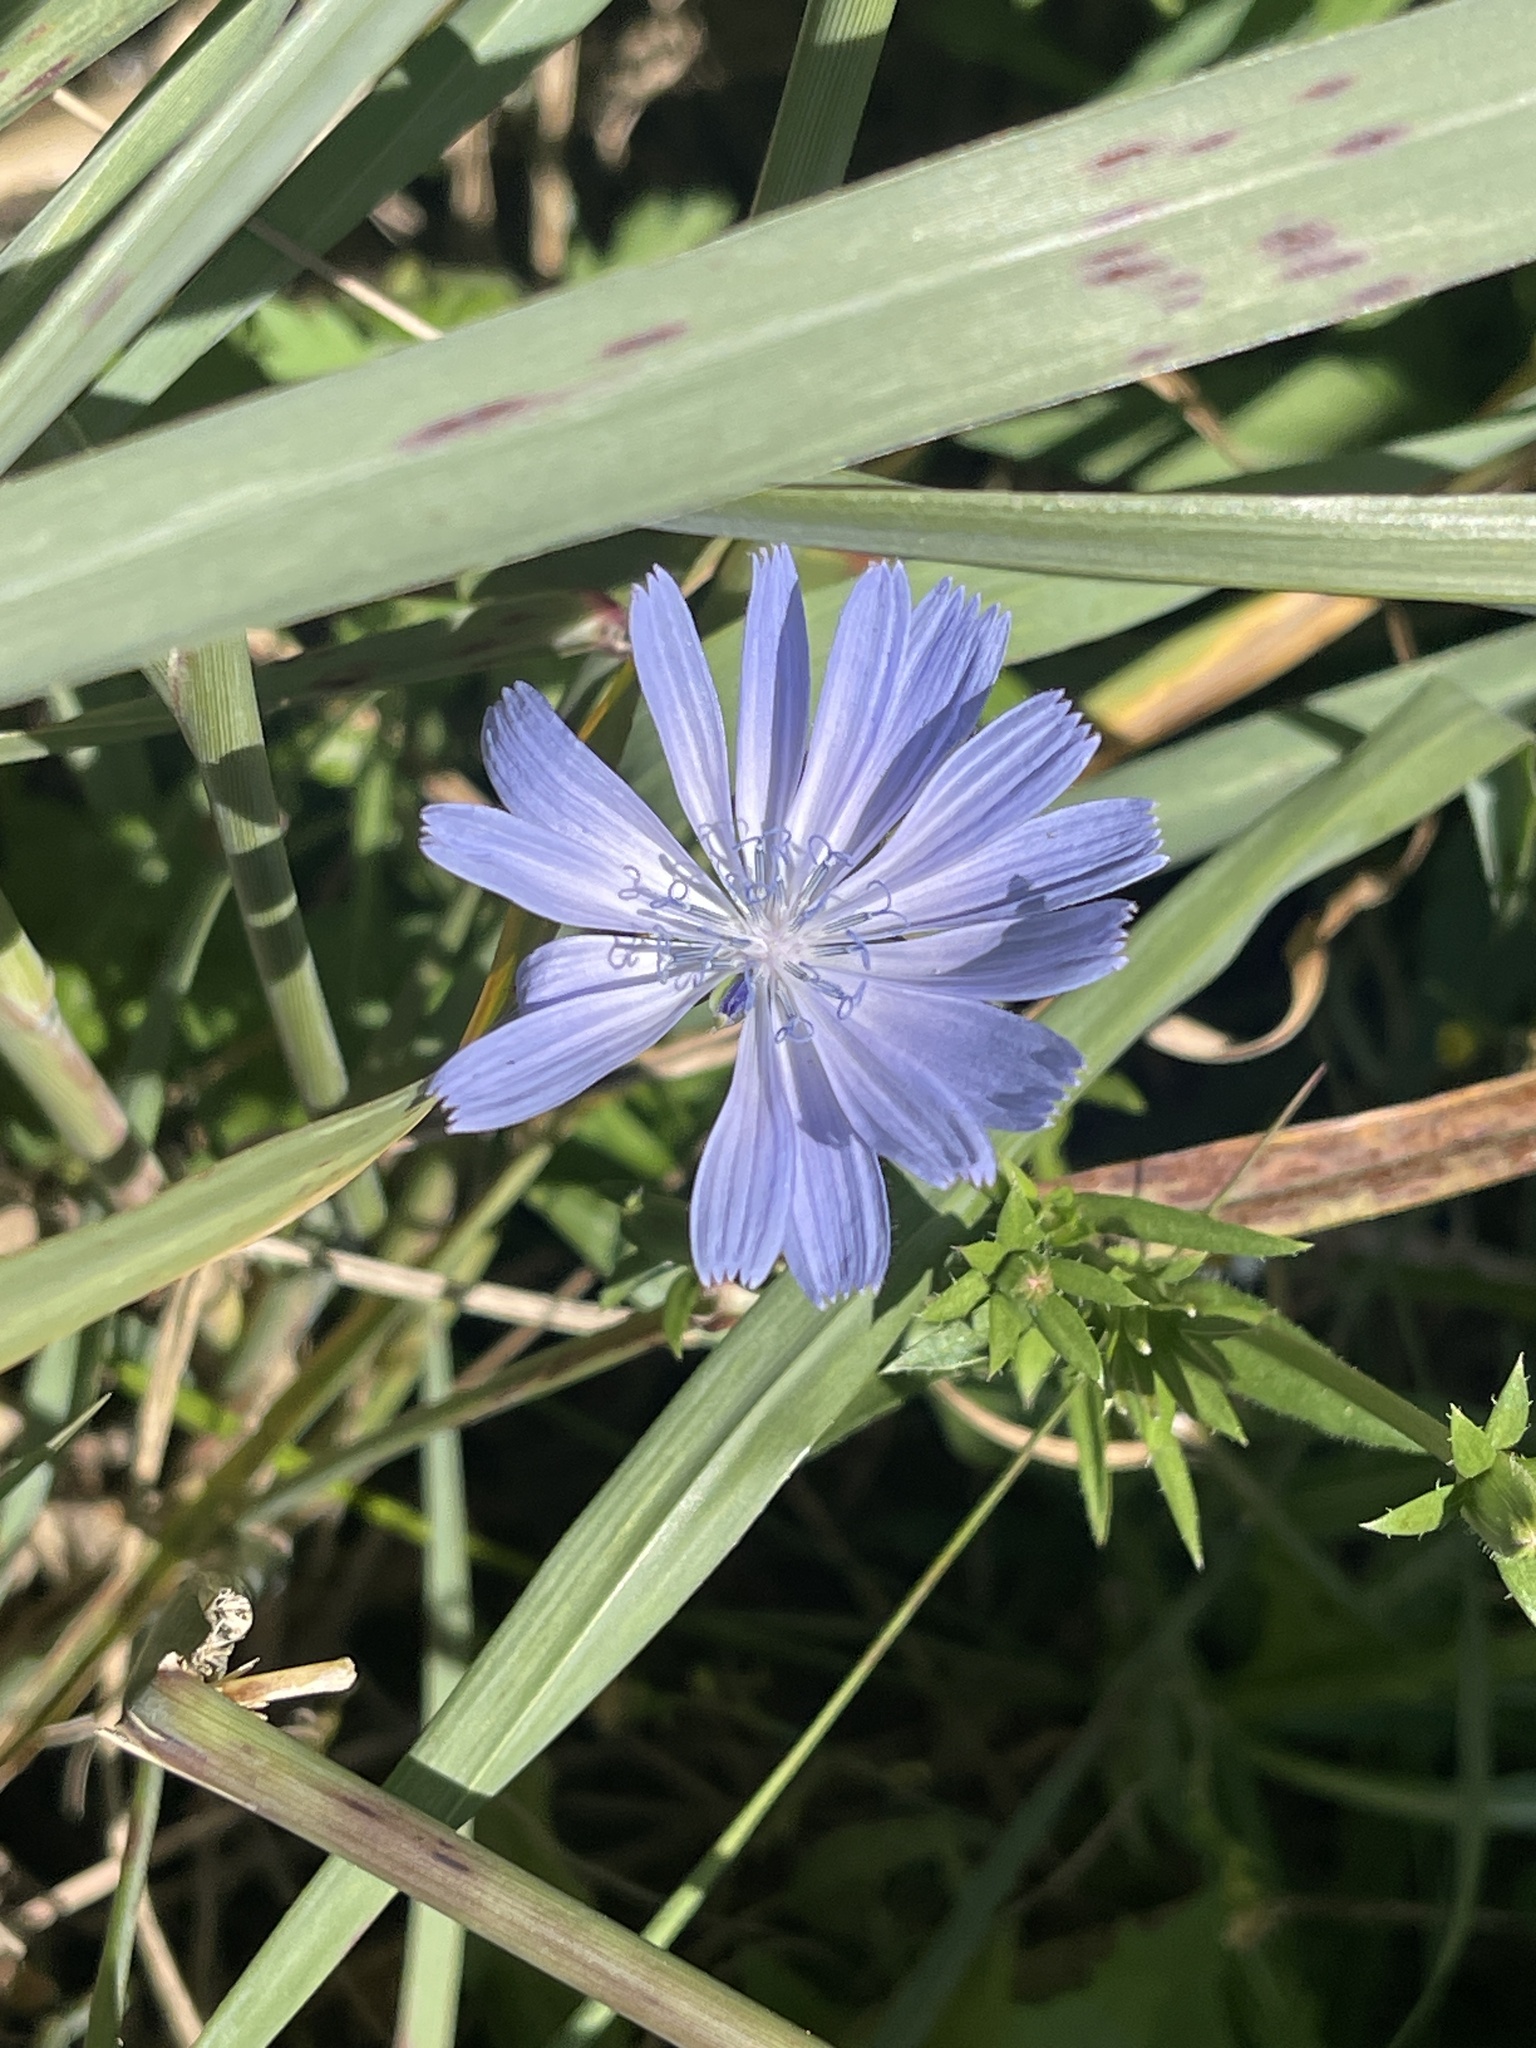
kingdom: Plantae
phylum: Tracheophyta
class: Magnoliopsida
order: Asterales
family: Asteraceae
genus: Cichorium
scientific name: Cichorium intybus
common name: Chicory
